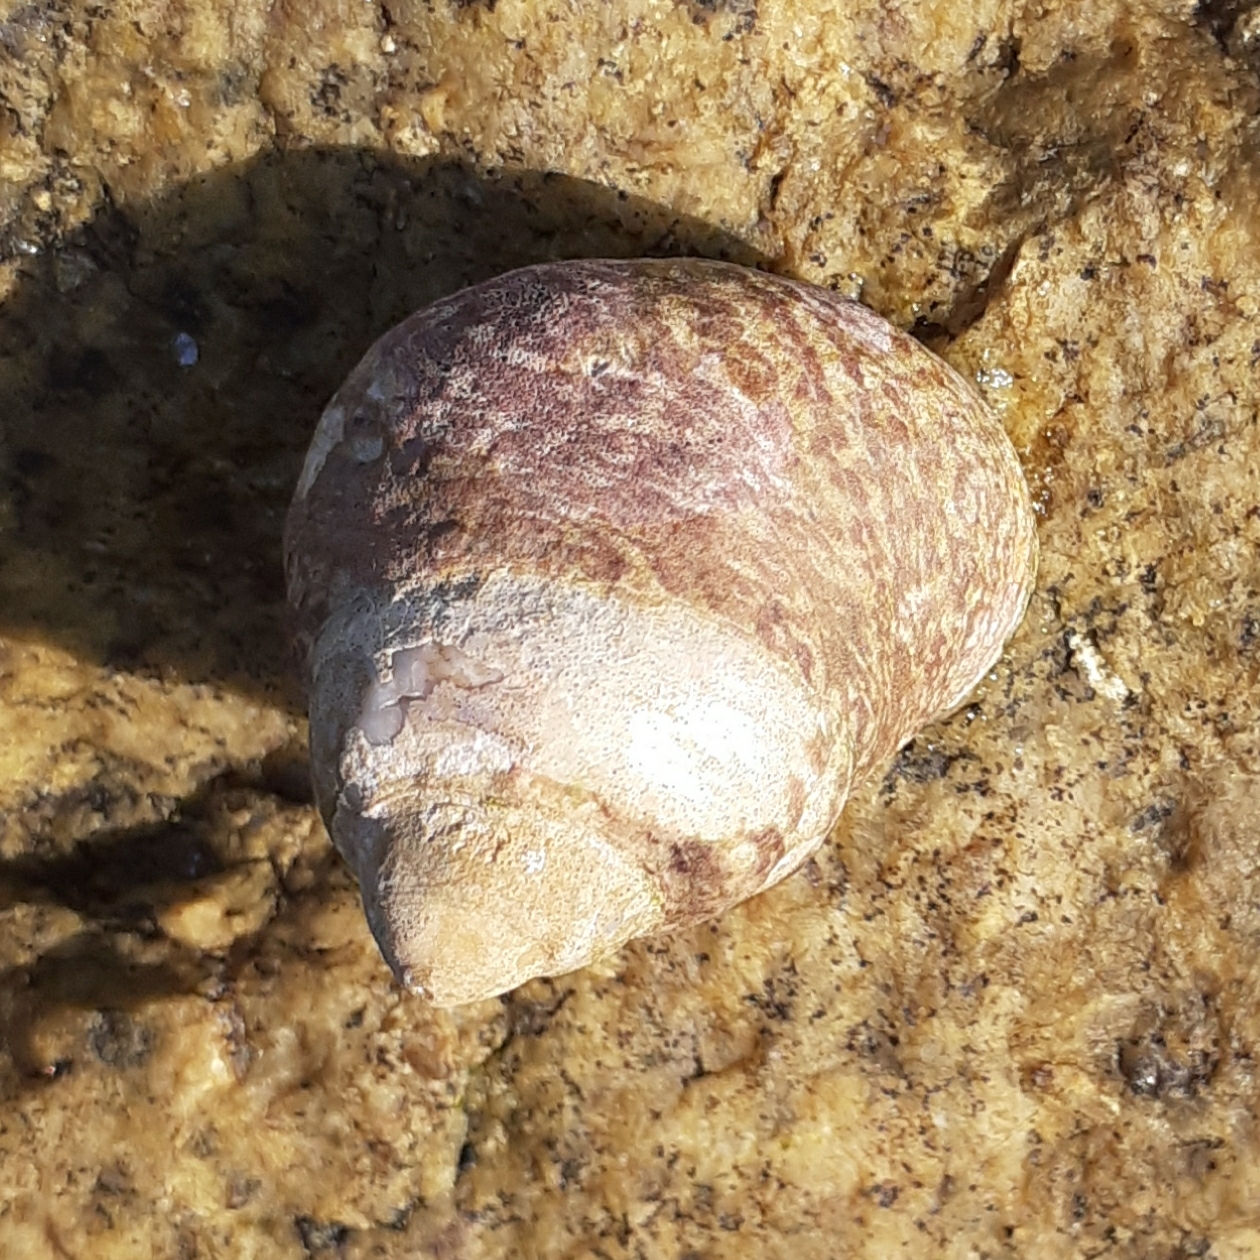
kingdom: Animalia
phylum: Mollusca
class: Gastropoda
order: Trochida
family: Trochidae
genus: Phorcus
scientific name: Phorcus lineatus
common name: Toothed top shell
